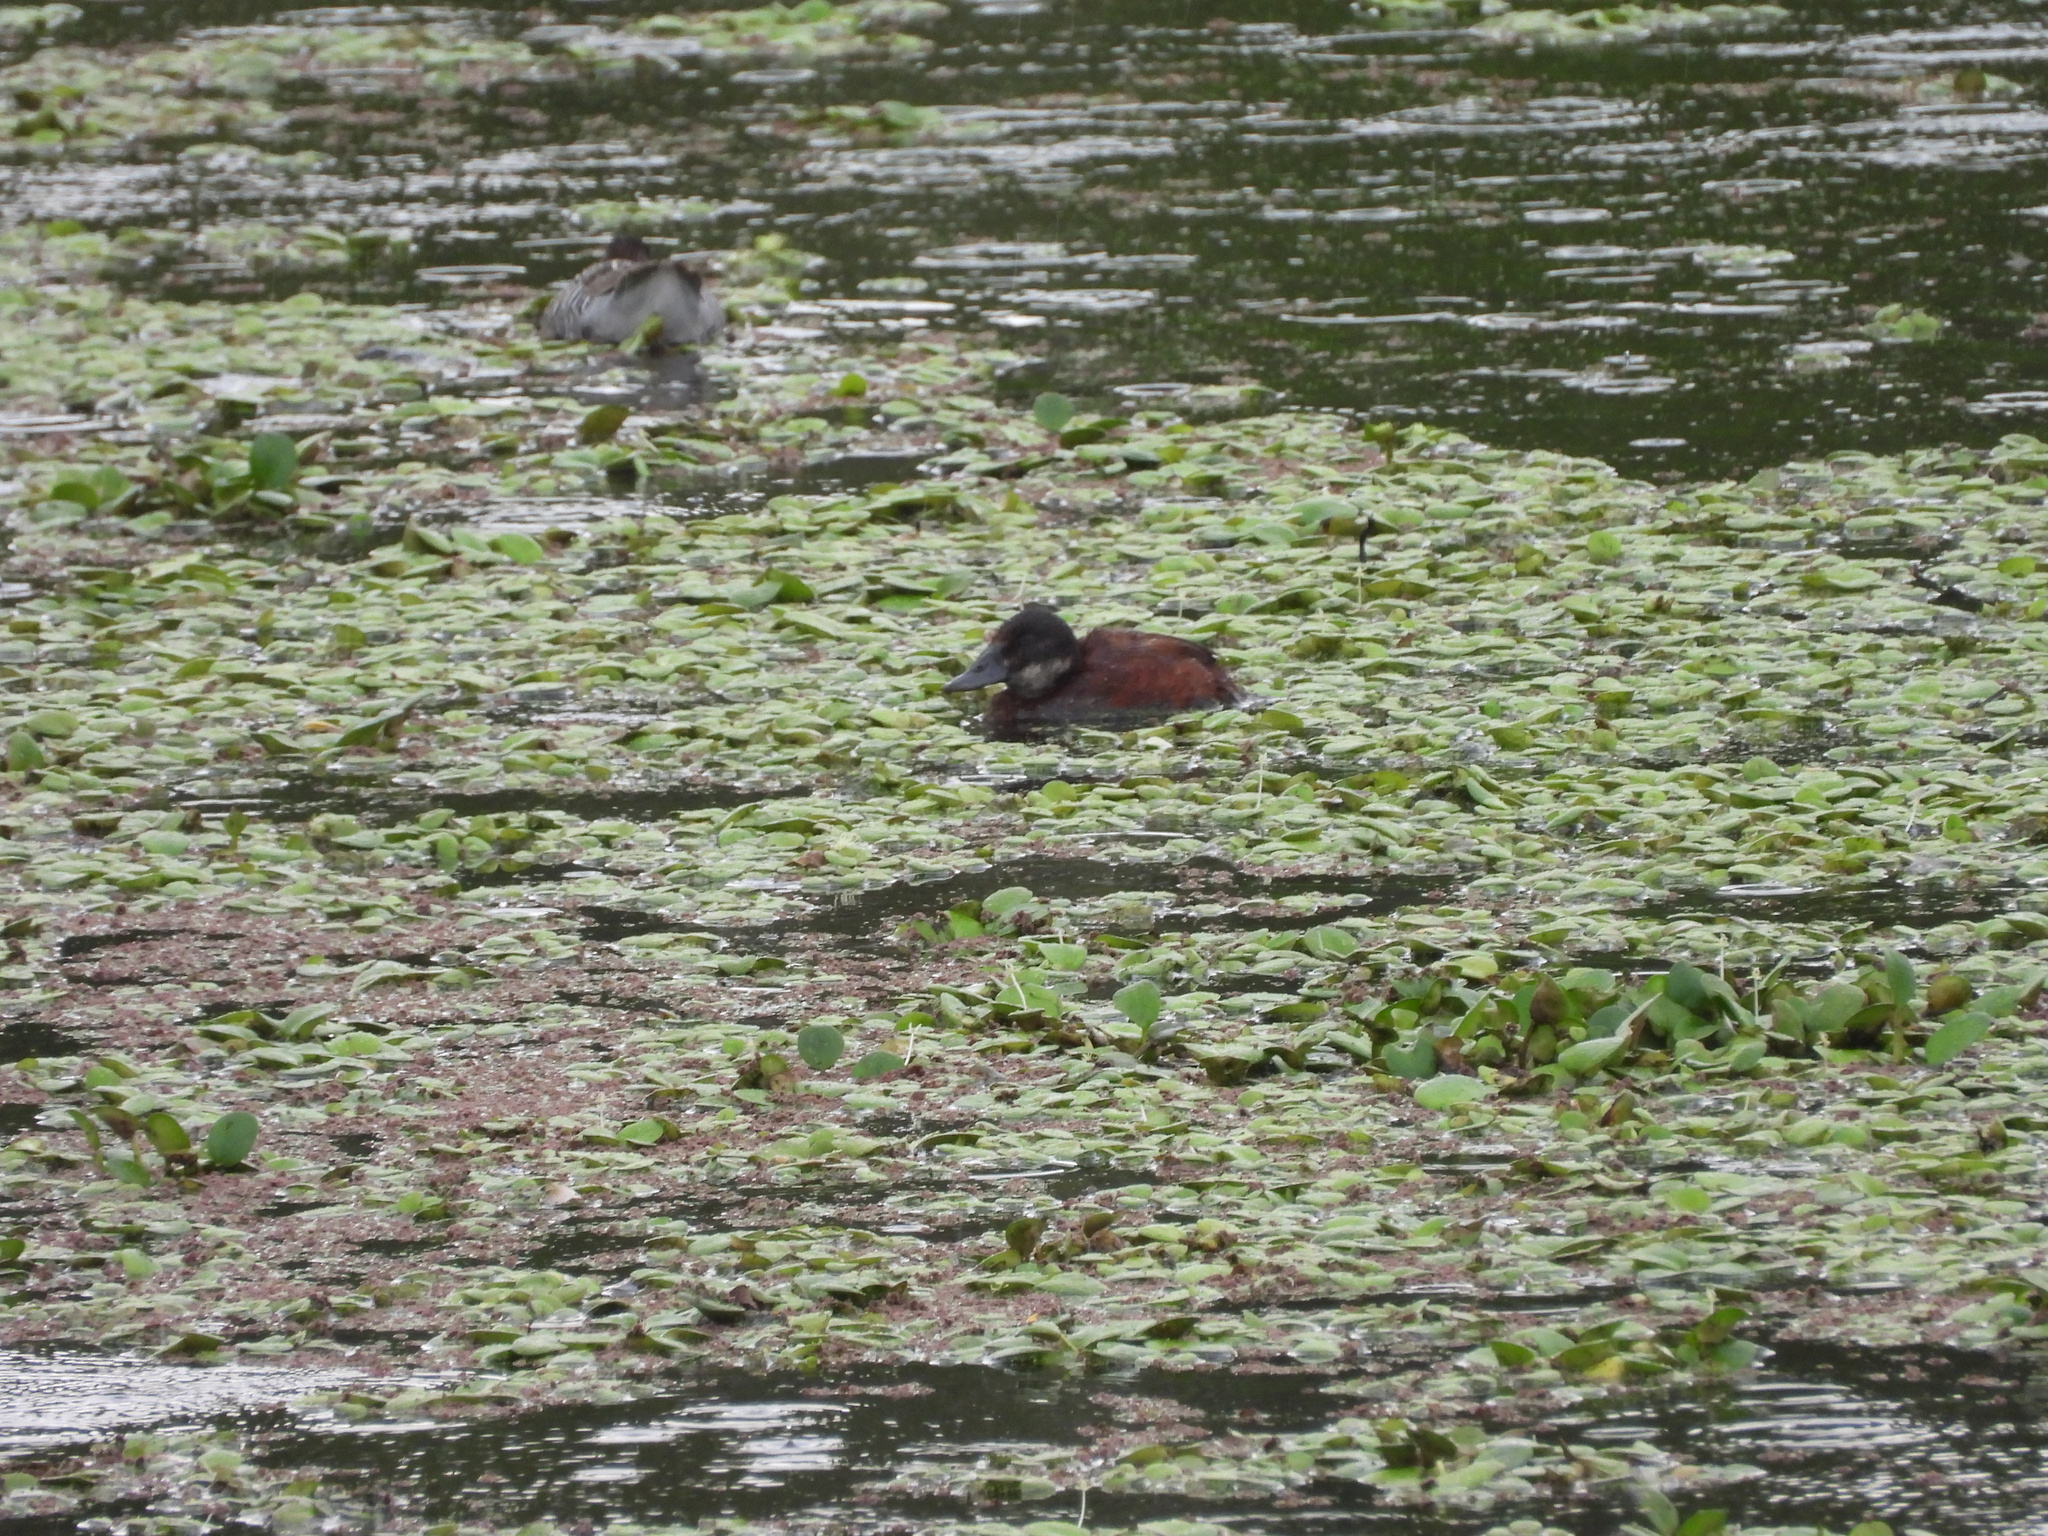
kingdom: Animalia
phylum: Chordata
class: Aves
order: Anseriformes
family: Anatidae
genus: Oxyura
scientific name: Oxyura vittata
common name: Lake duck
